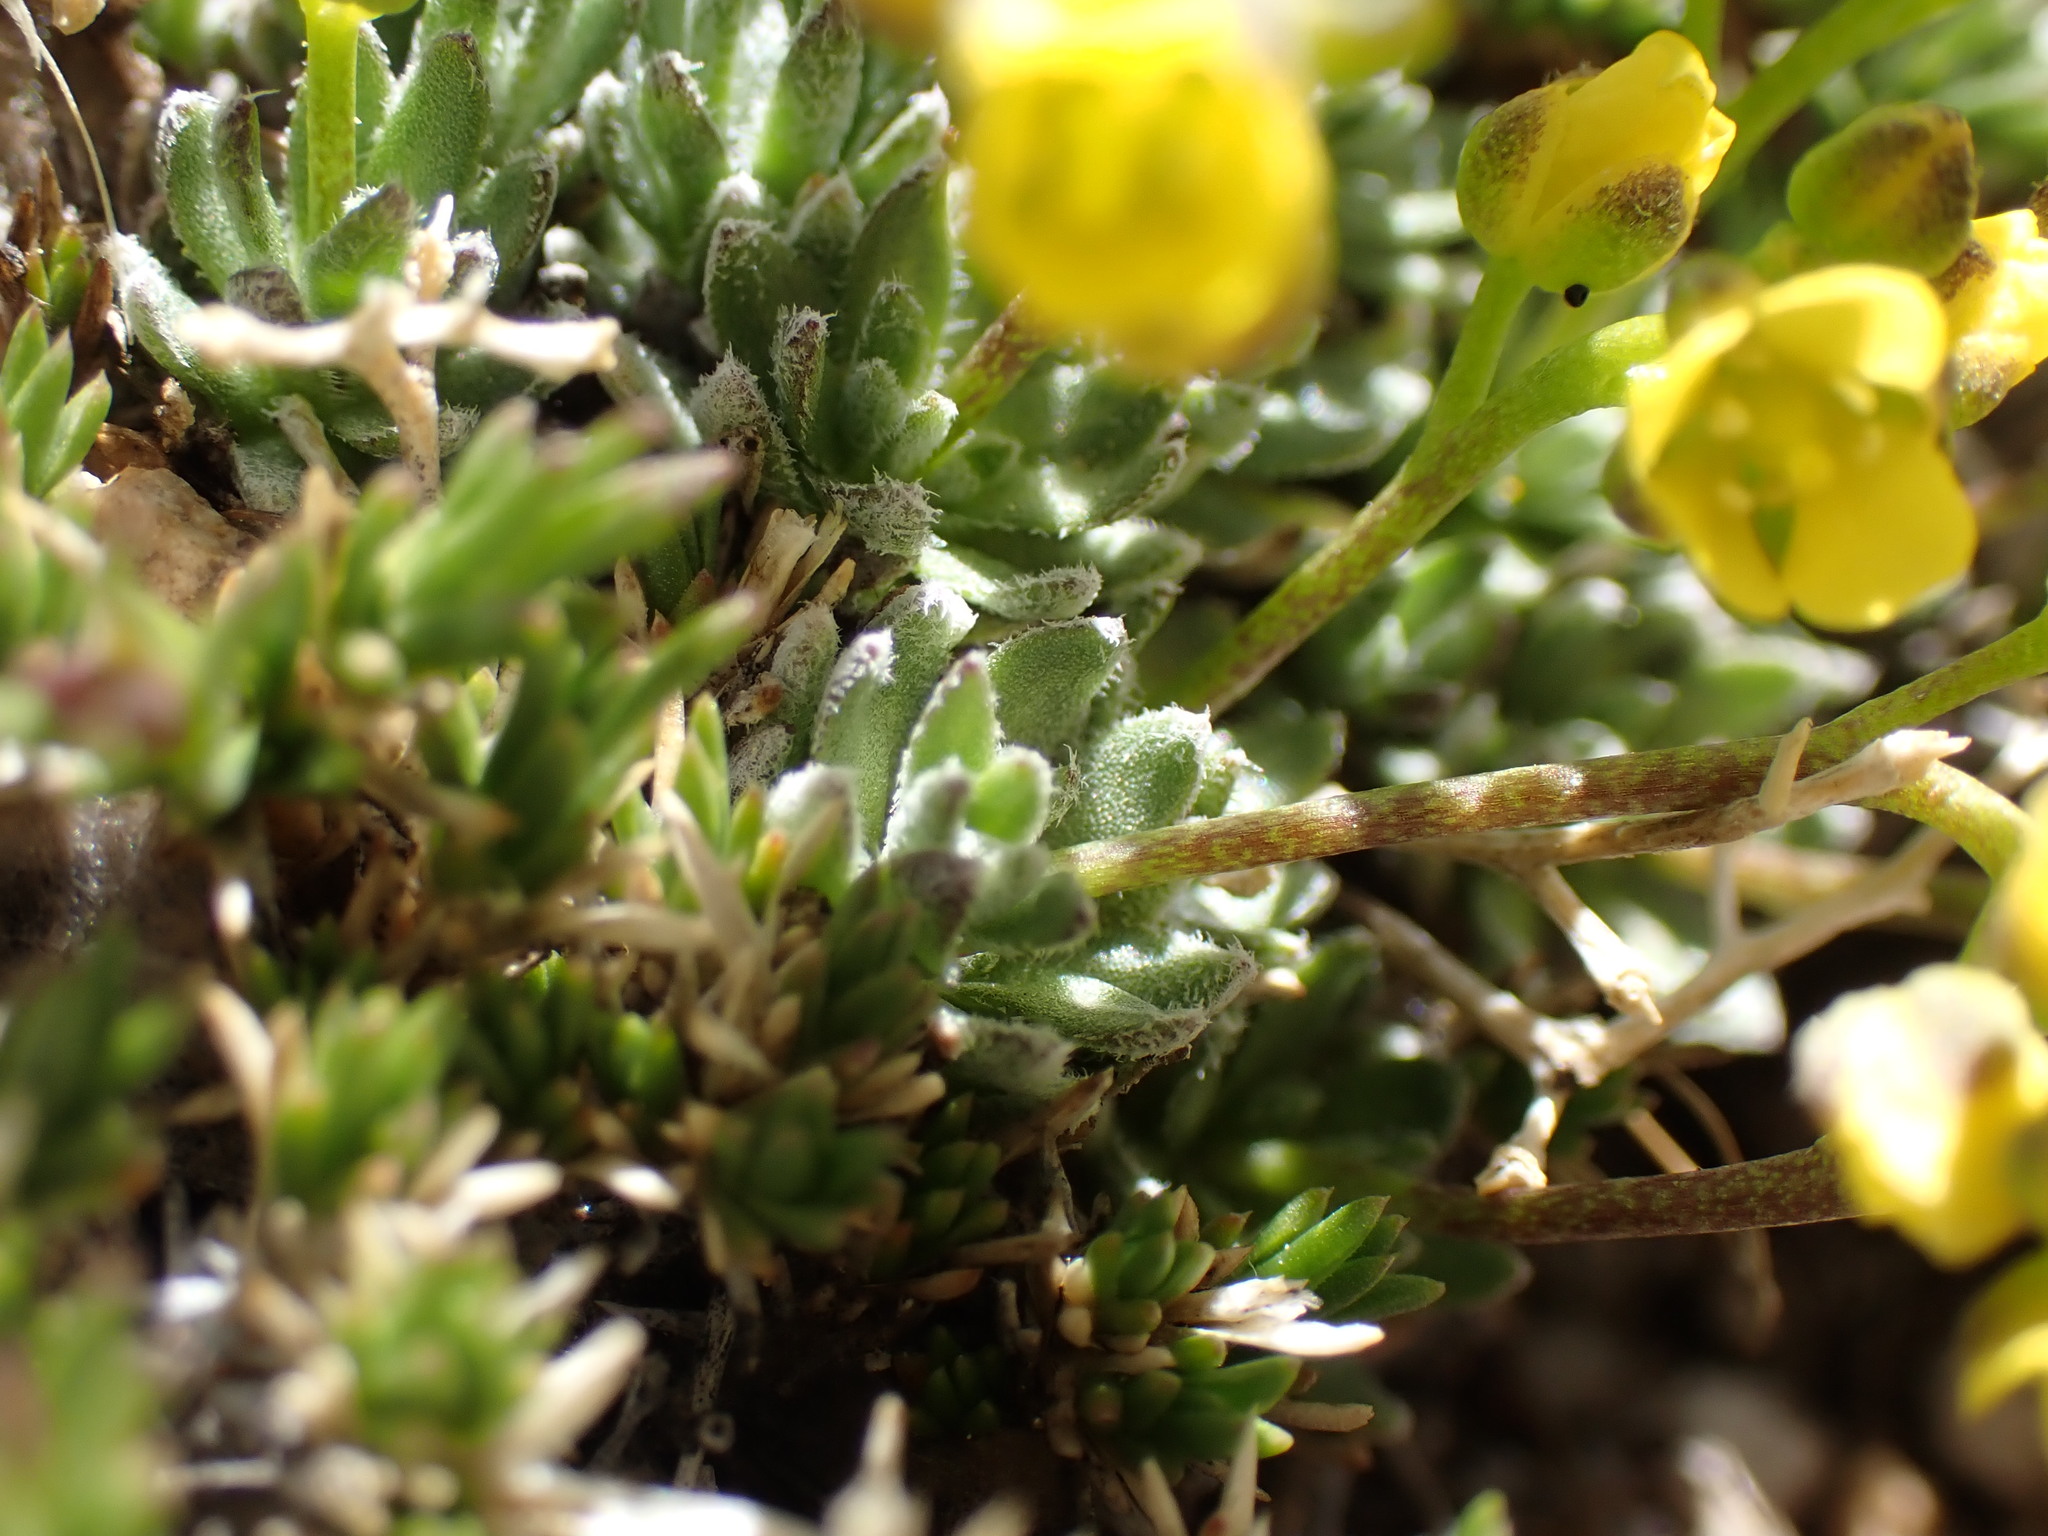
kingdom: Plantae
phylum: Tracheophyta
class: Magnoliopsida
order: Brassicales
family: Brassicaceae
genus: Draba
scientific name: Draba oligosperma
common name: Few-seed draba
